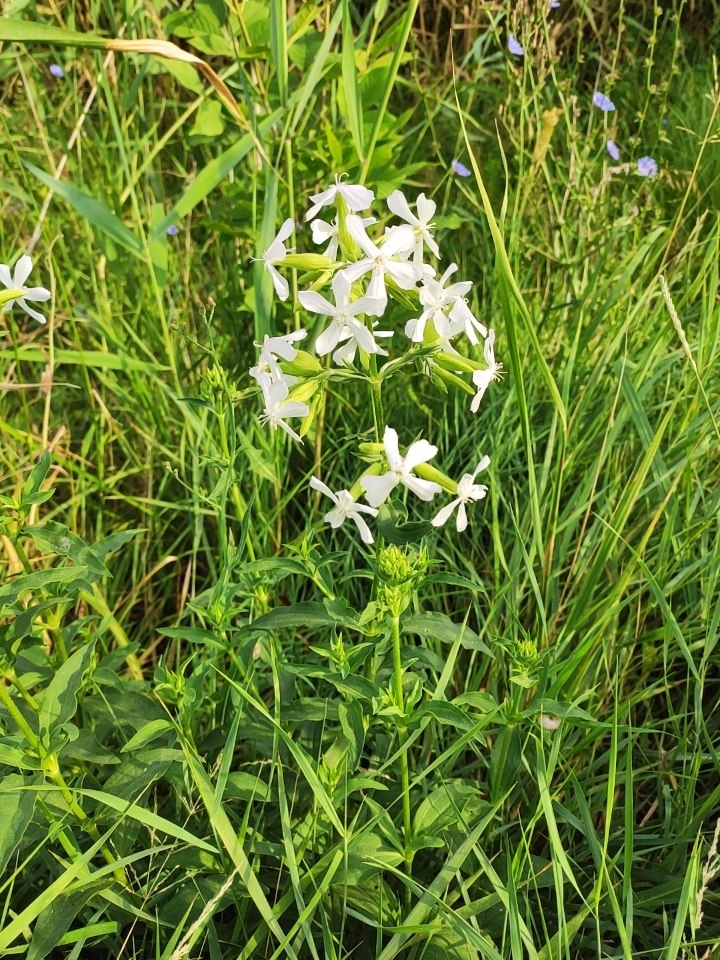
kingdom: Plantae
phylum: Tracheophyta
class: Magnoliopsida
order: Caryophyllales
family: Caryophyllaceae
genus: Saponaria
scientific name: Saponaria officinalis
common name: Soapwort
